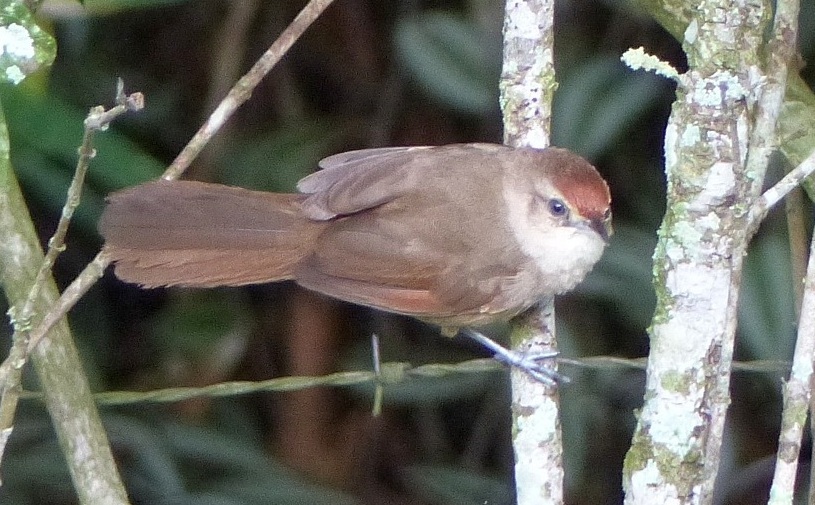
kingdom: Animalia
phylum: Chordata
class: Aves
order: Passeriformes
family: Furnariidae
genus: Phacellodomus
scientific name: Phacellodomus rufifrons
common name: Rufous-fronted thornbird
